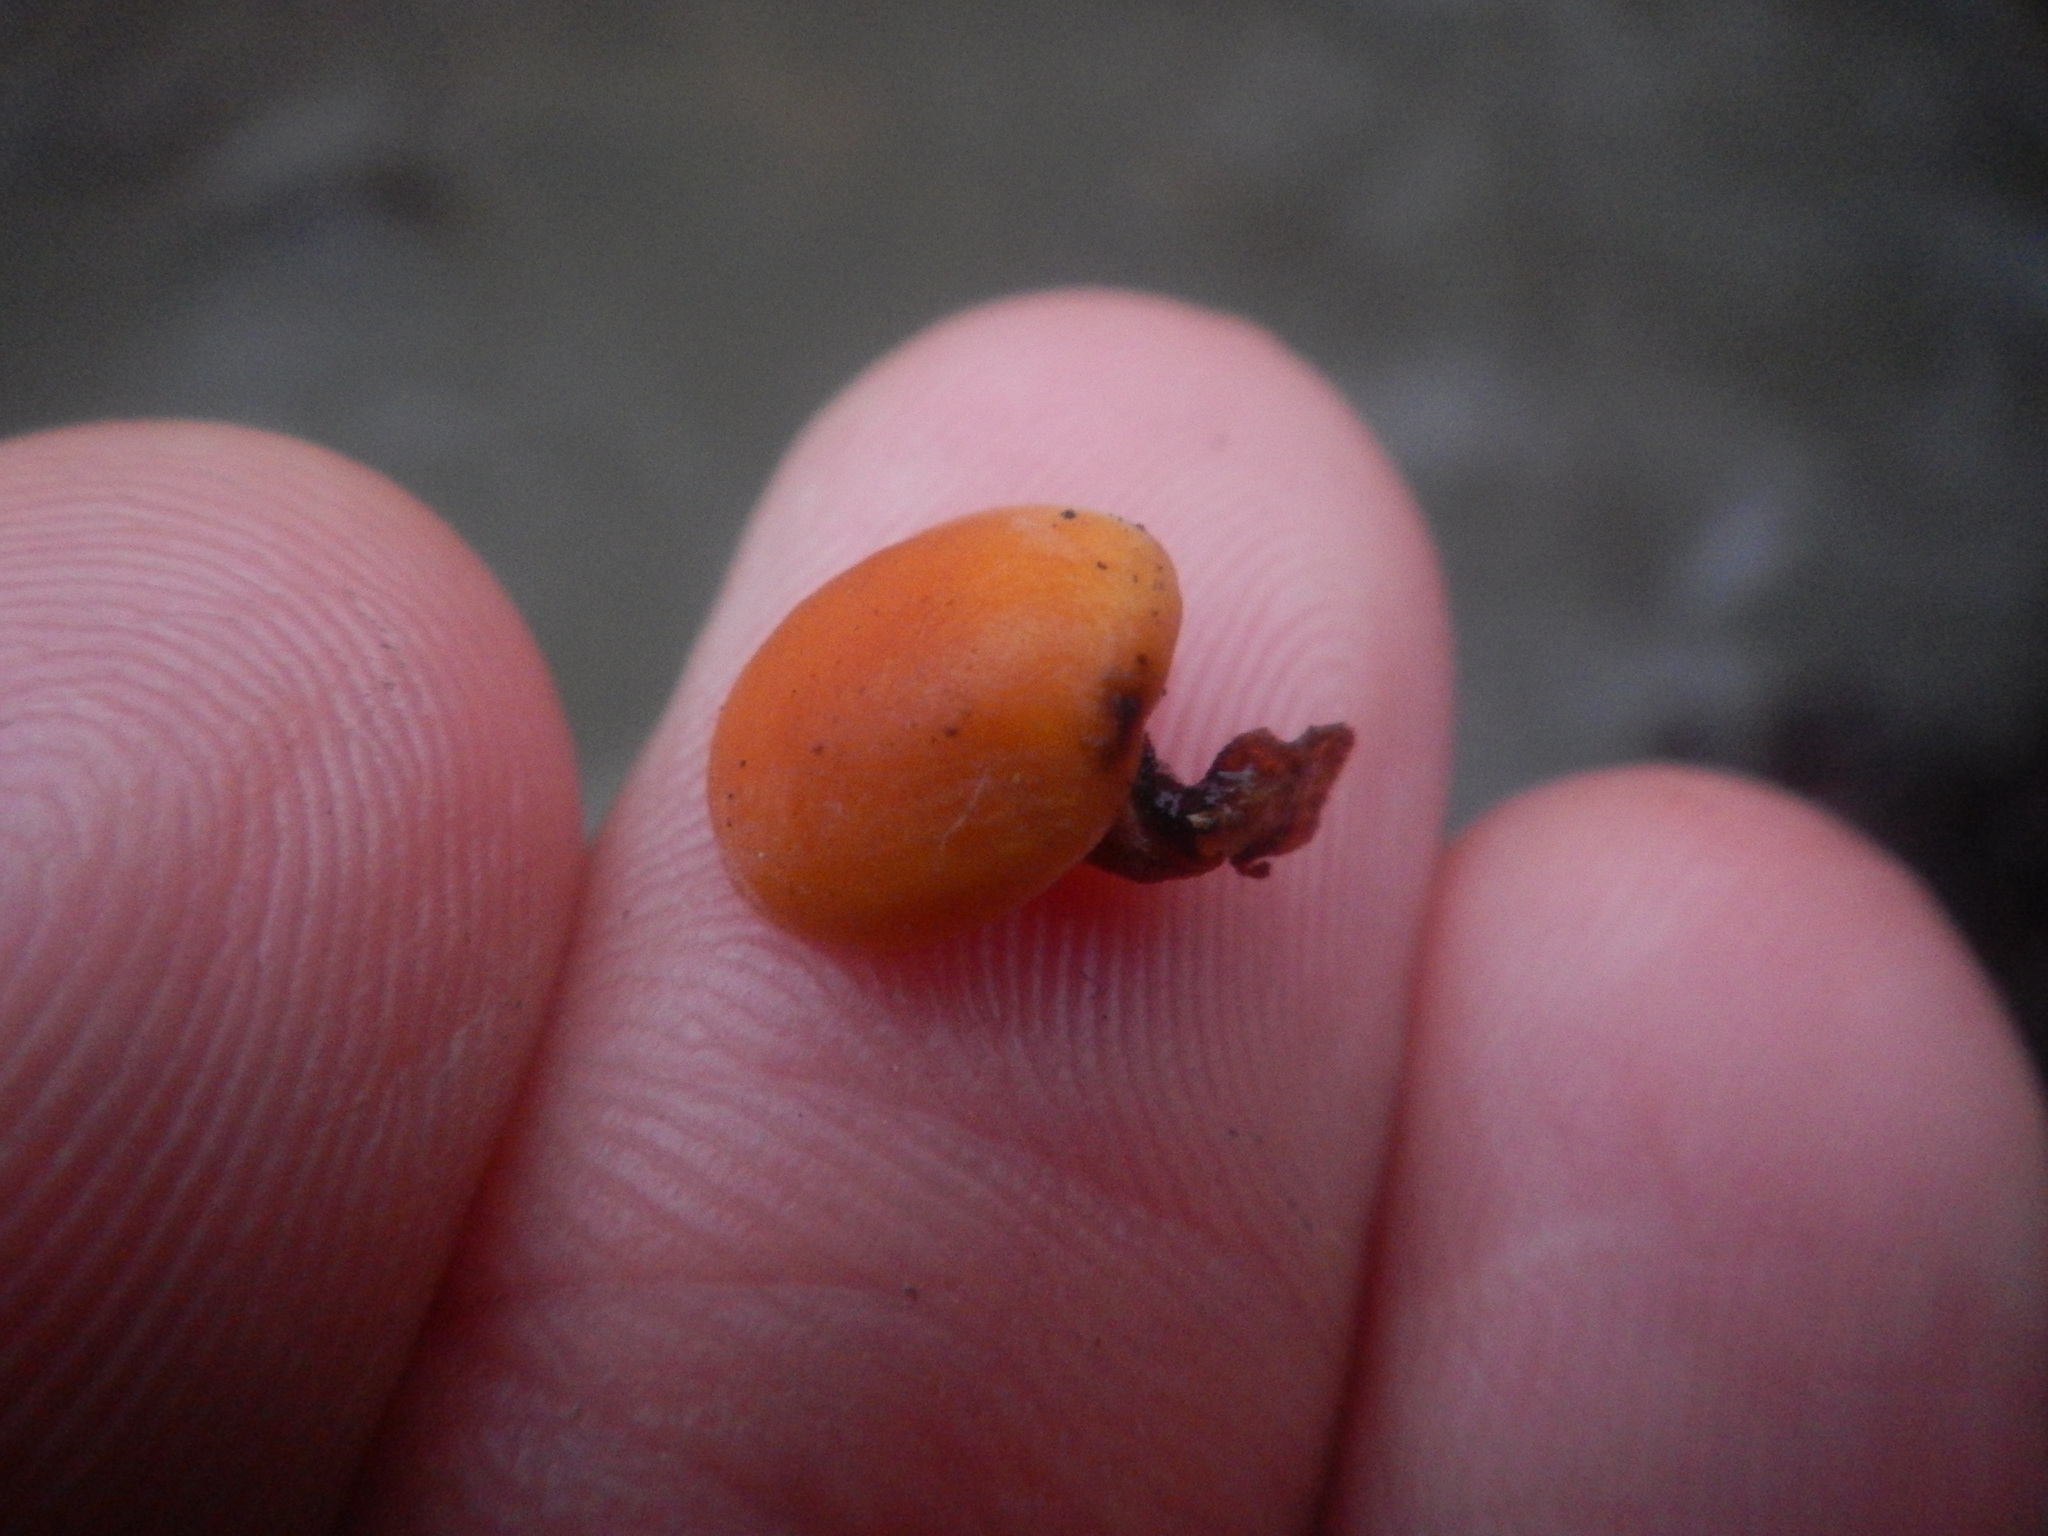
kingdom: Fungi
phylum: Basidiomycota
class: Agaricomycetes
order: Agaricales
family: Physalacriaceae
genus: Flammulina
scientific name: Flammulina velutipes
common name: Velvet shank
